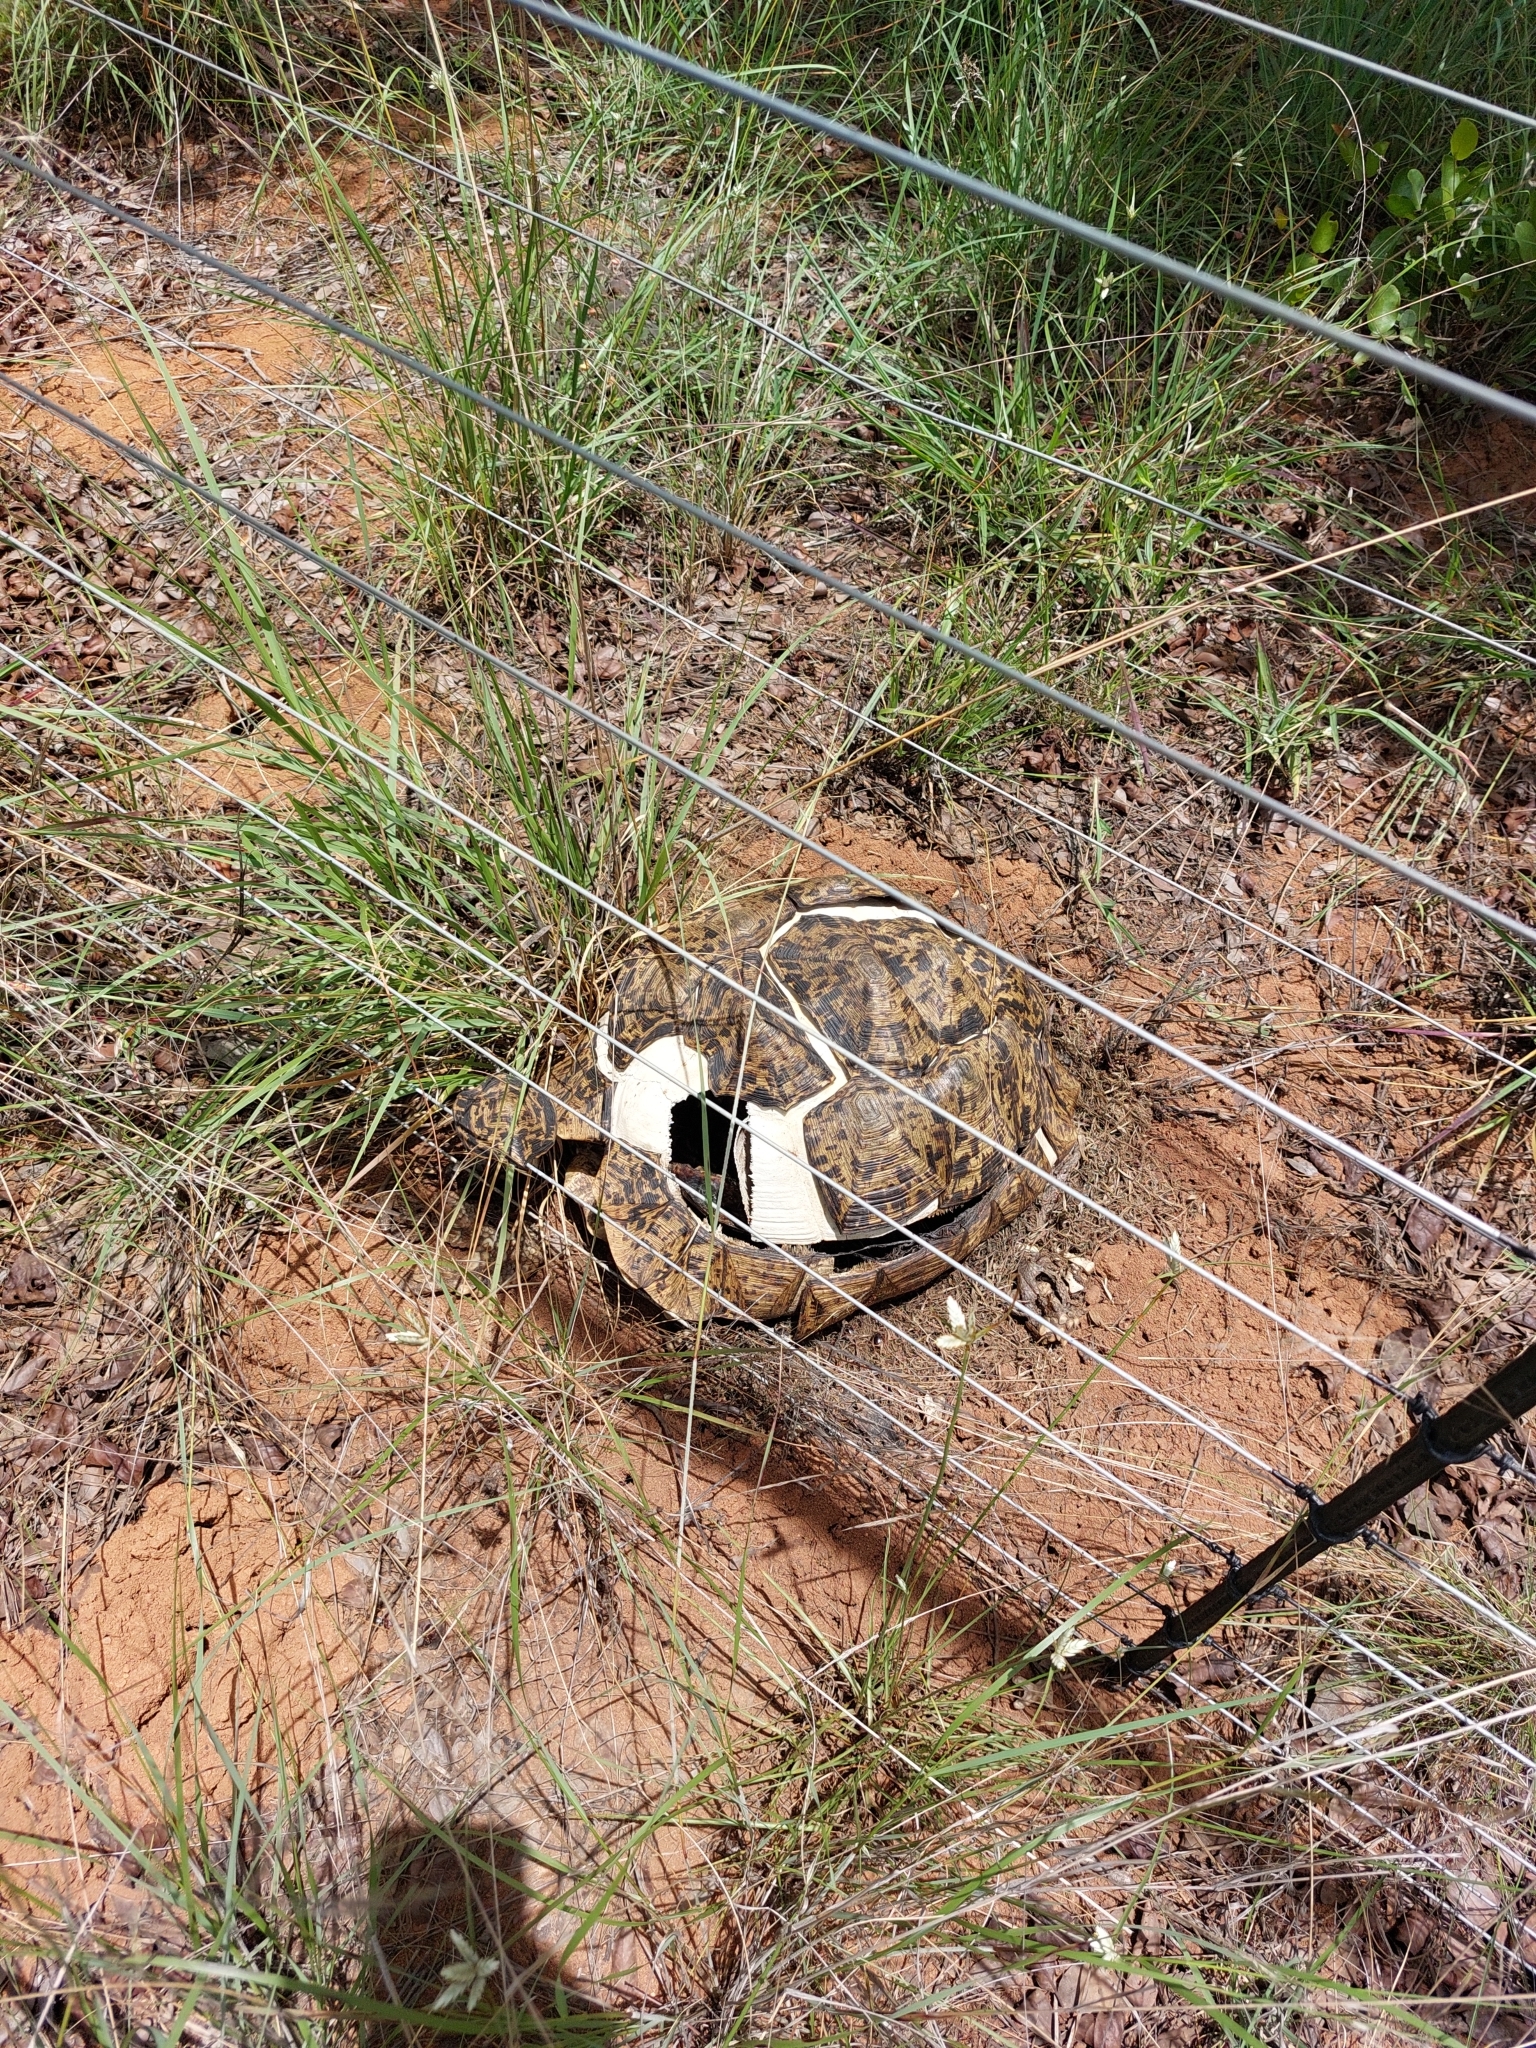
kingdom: Animalia
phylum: Chordata
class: Testudines
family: Testudinidae
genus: Stigmochelys
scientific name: Stigmochelys pardalis
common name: Leopard tortoise
